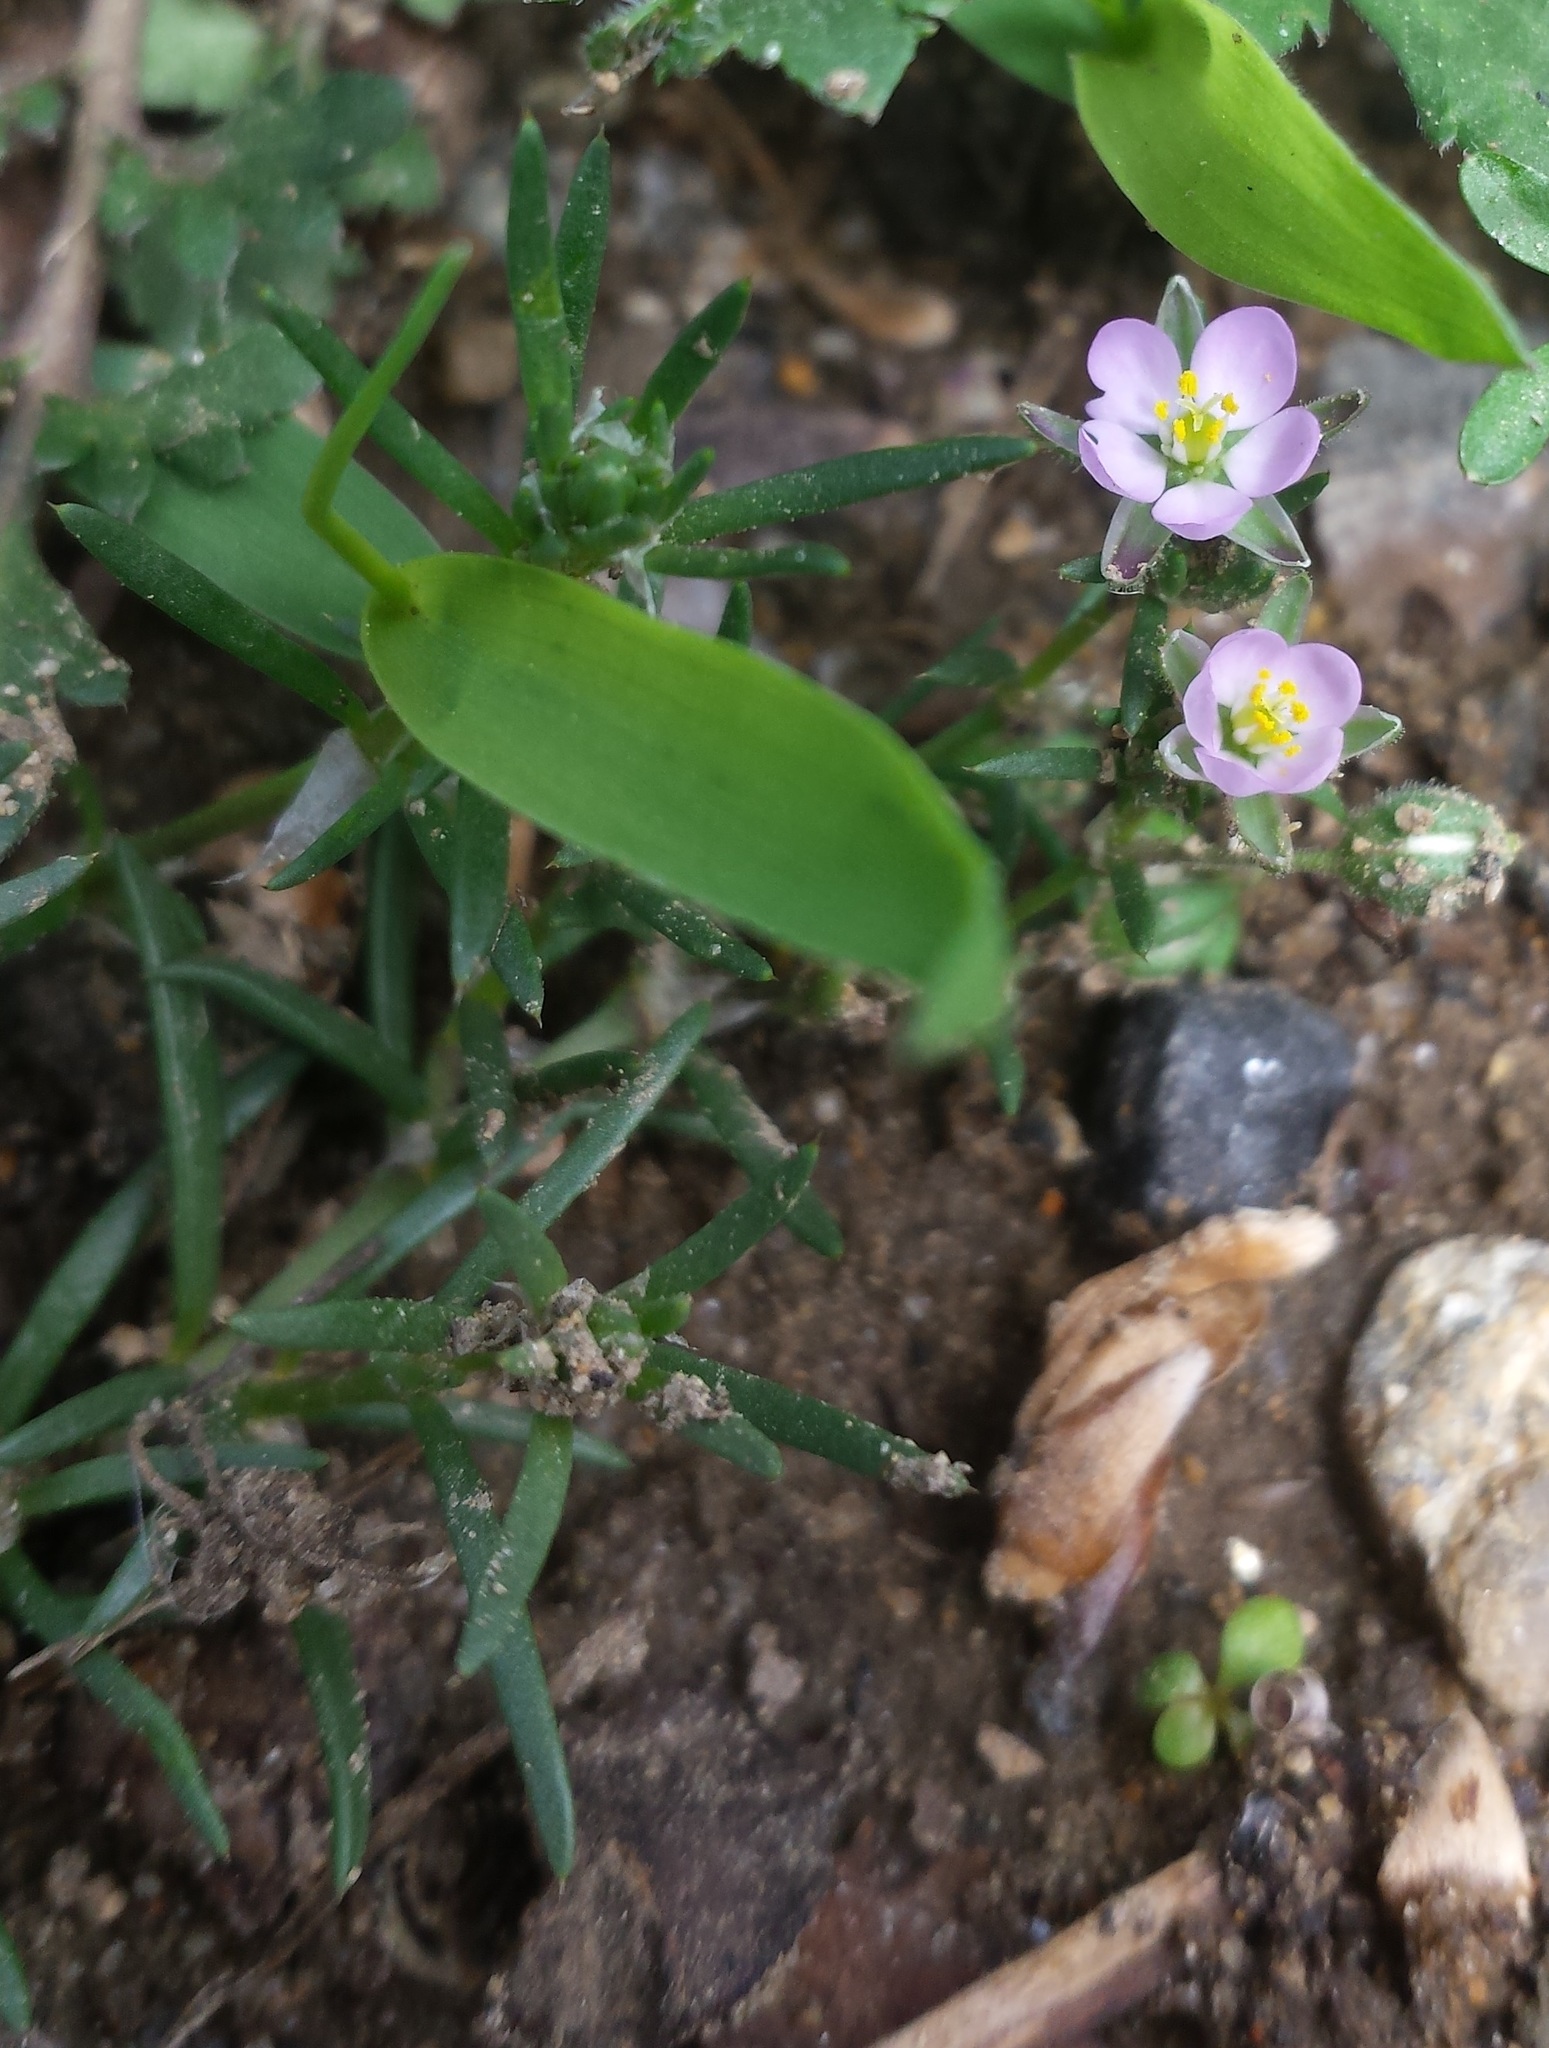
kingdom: Plantae
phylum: Tracheophyta
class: Magnoliopsida
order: Caryophyllales
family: Caryophyllaceae
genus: Spergularia
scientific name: Spergularia rubra
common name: Red sand-spurrey
